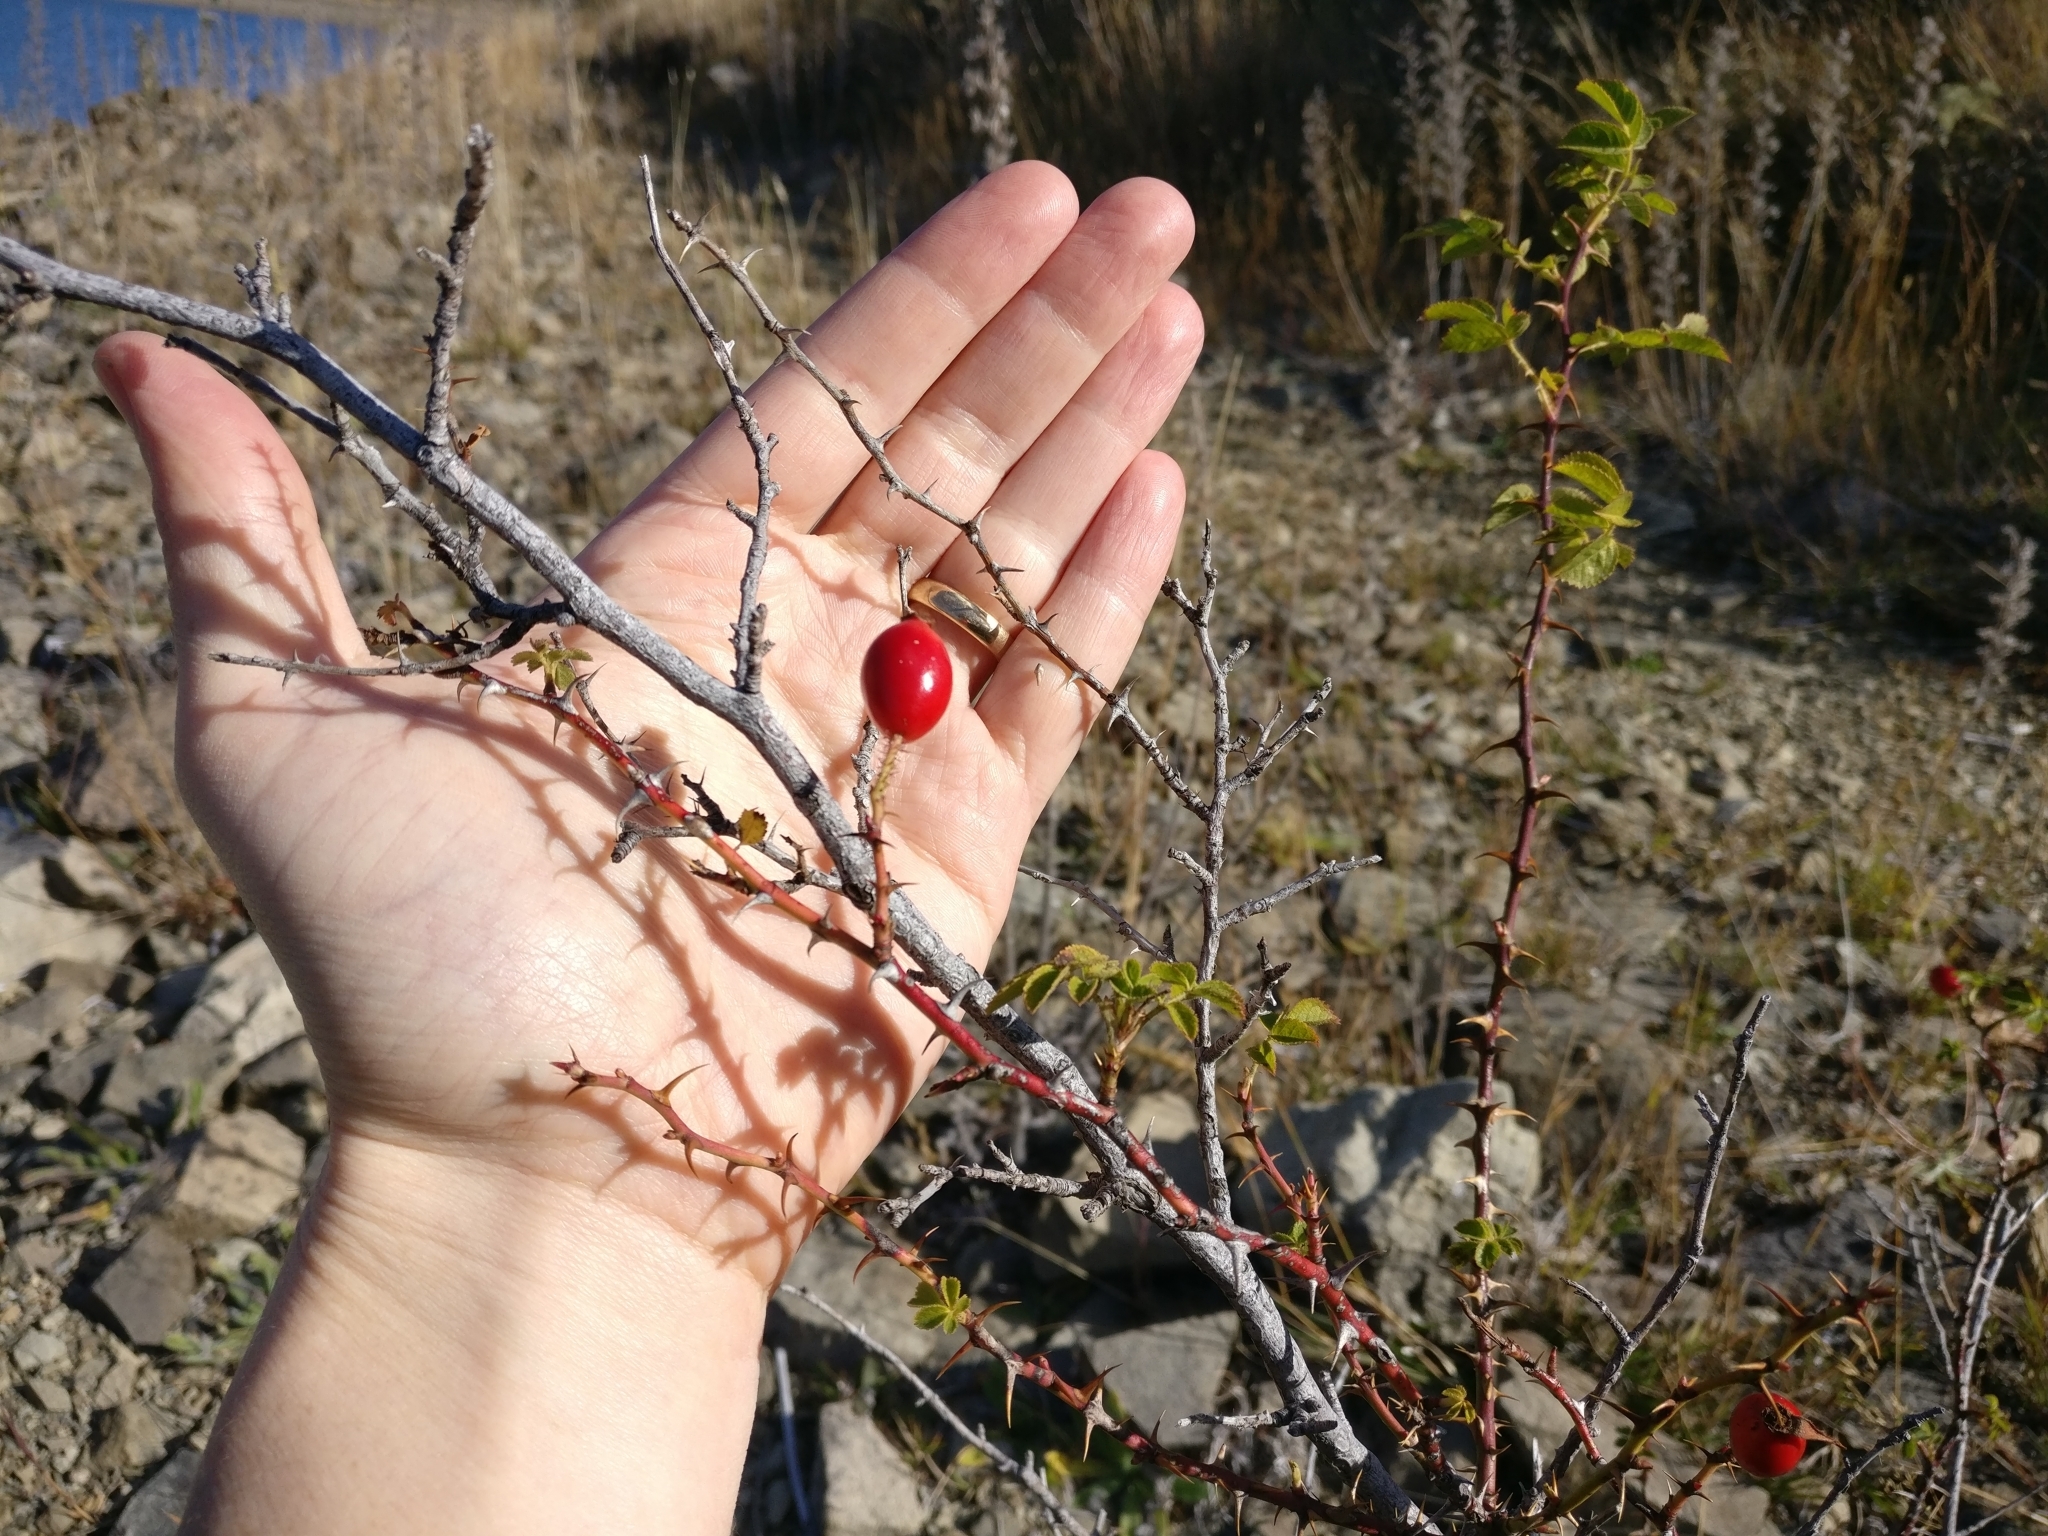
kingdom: Plantae
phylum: Tracheophyta
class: Magnoliopsida
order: Rosales
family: Rosaceae
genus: Rosa
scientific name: Rosa rubiginosa
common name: Sweet-briar
